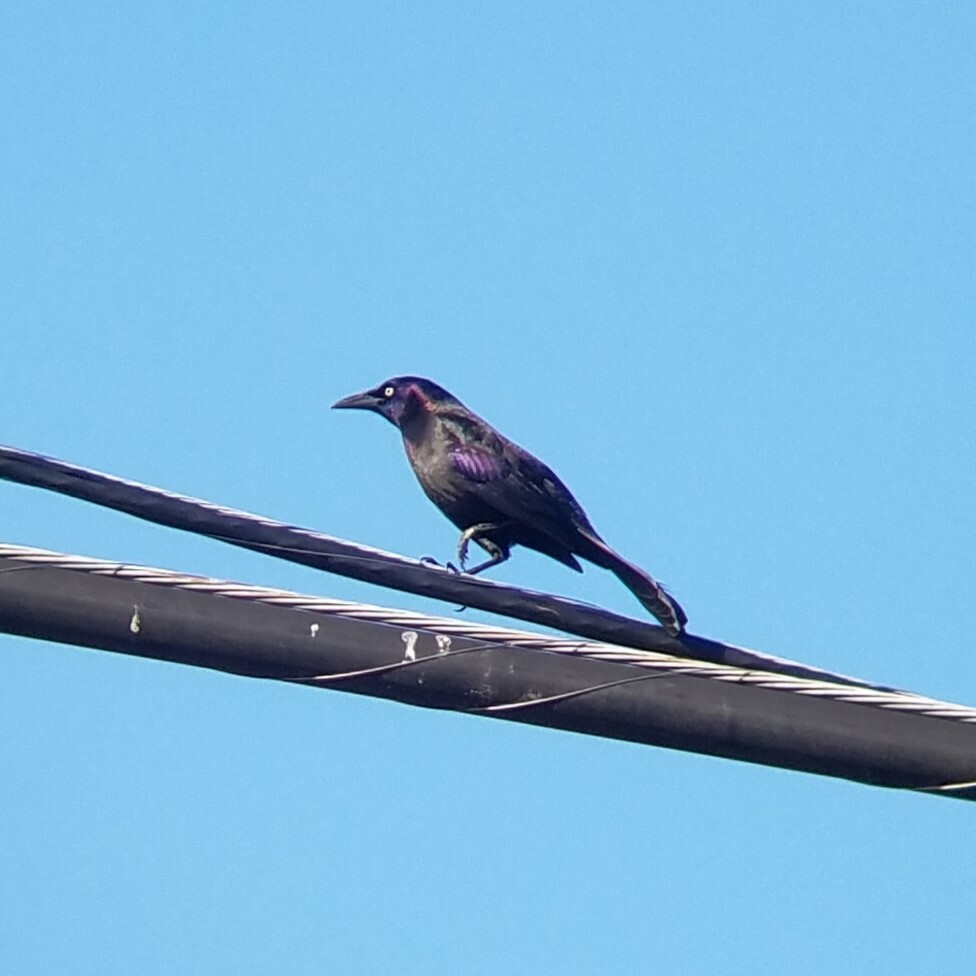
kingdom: Animalia
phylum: Chordata
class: Aves
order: Passeriformes
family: Icteridae
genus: Quiscalus
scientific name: Quiscalus quiscula
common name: Common grackle
